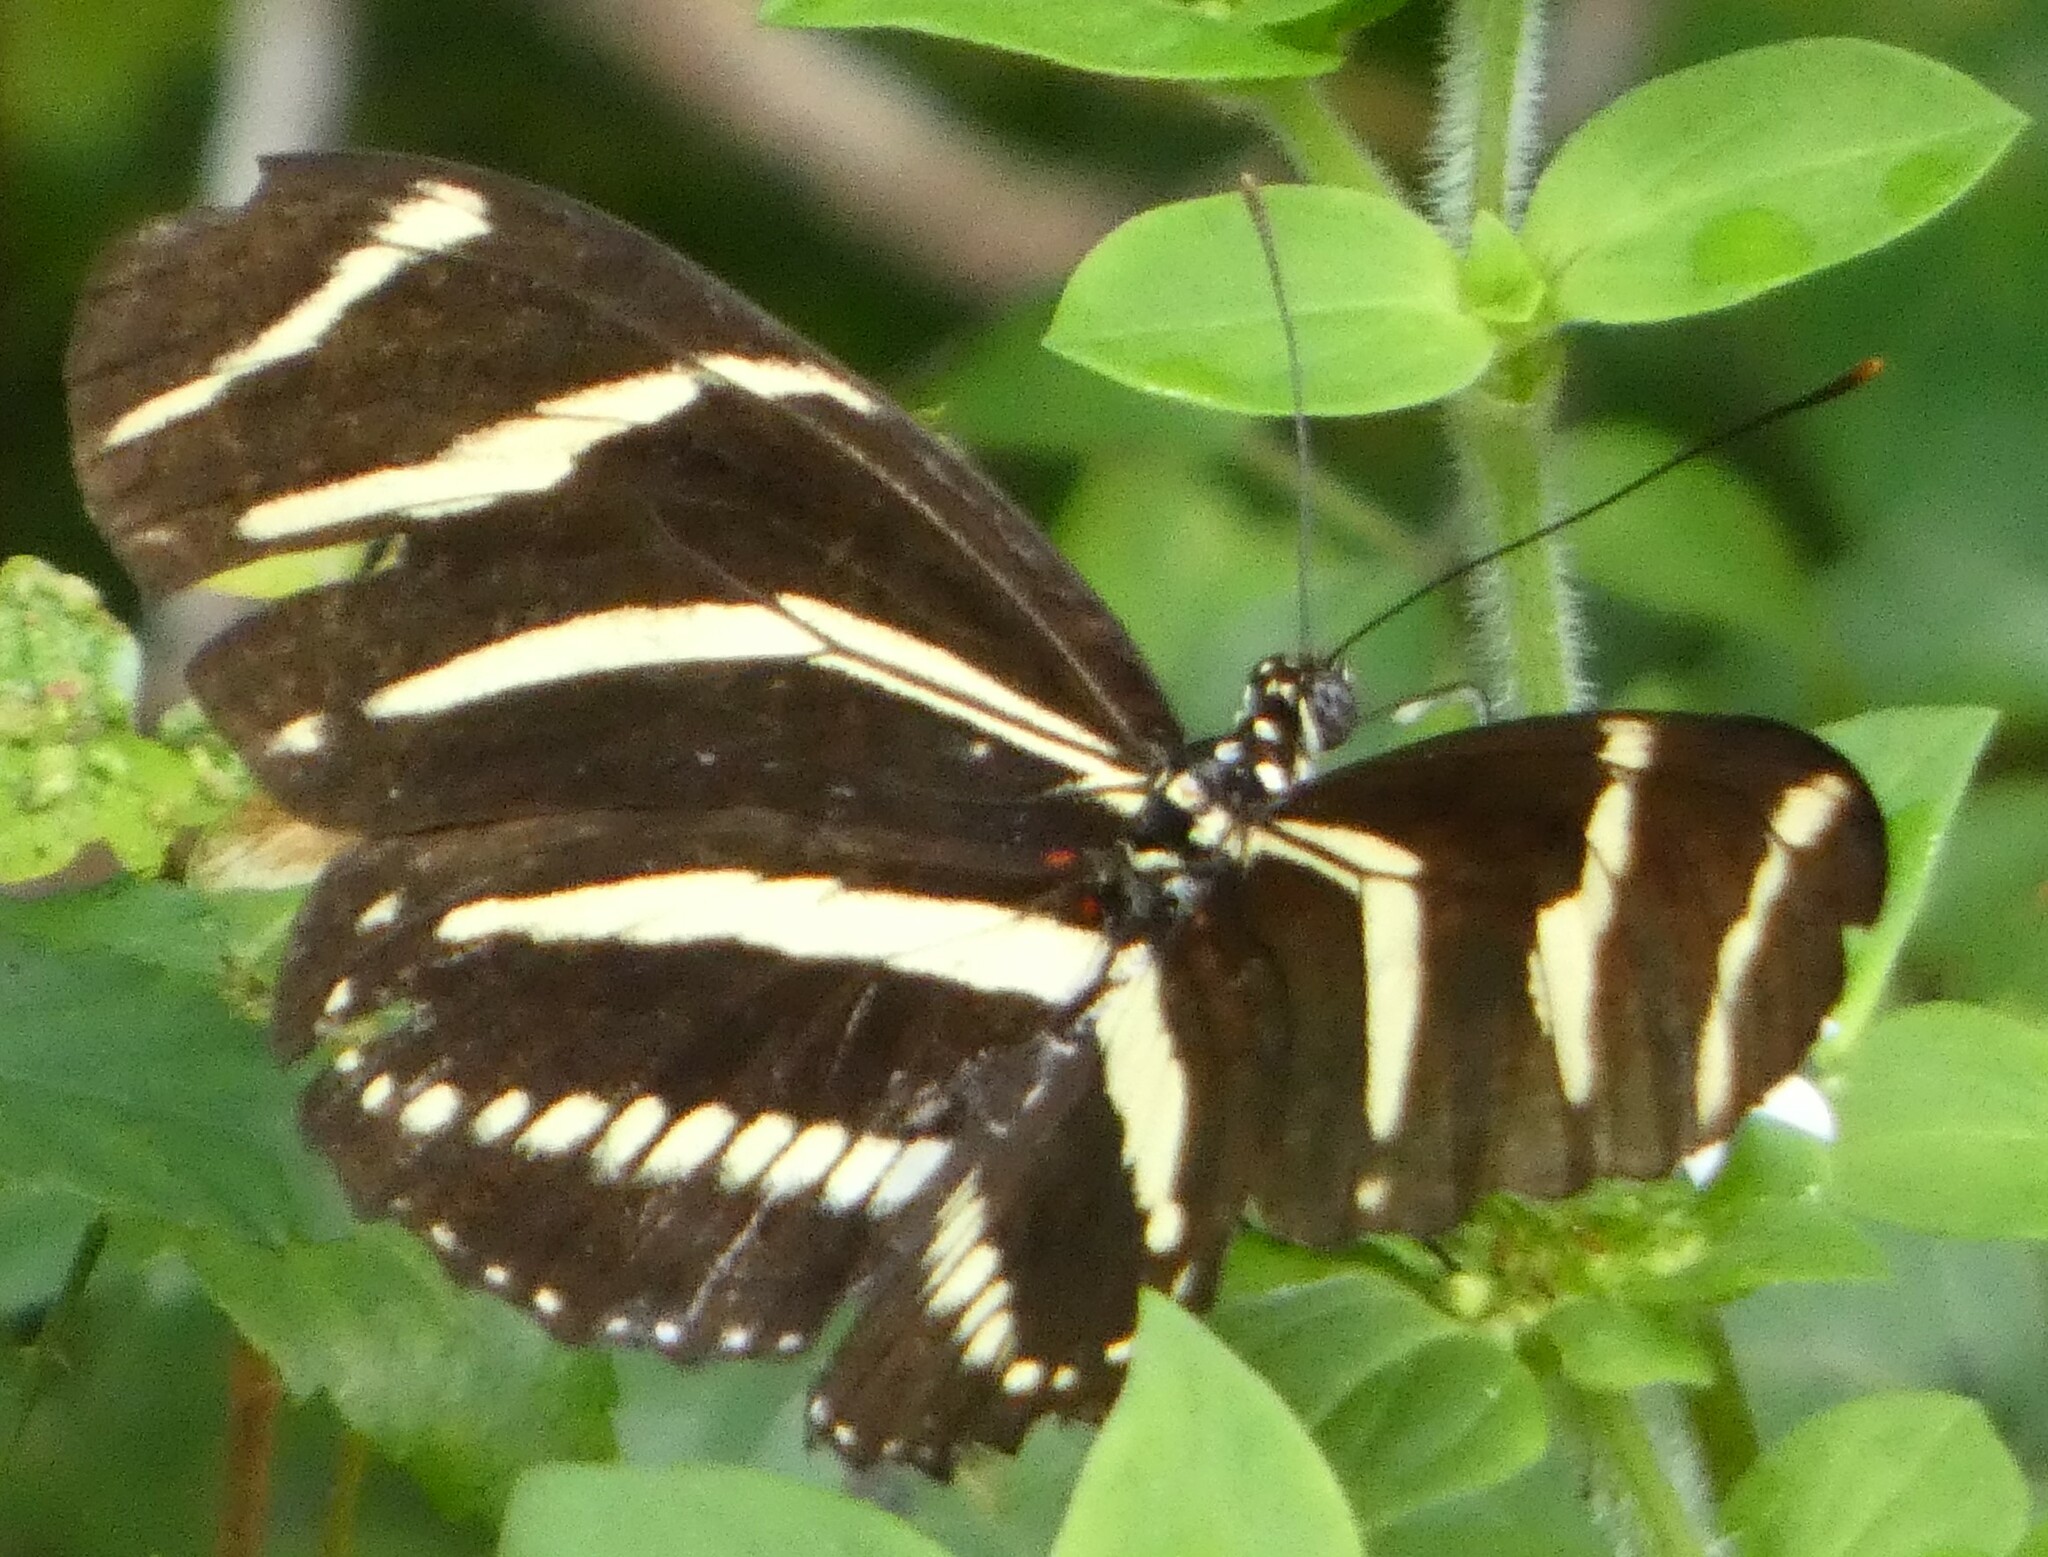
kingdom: Animalia
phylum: Arthropoda
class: Insecta
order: Lepidoptera
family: Nymphalidae
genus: Heliconius
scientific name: Heliconius charithonia
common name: Zebra long wing
